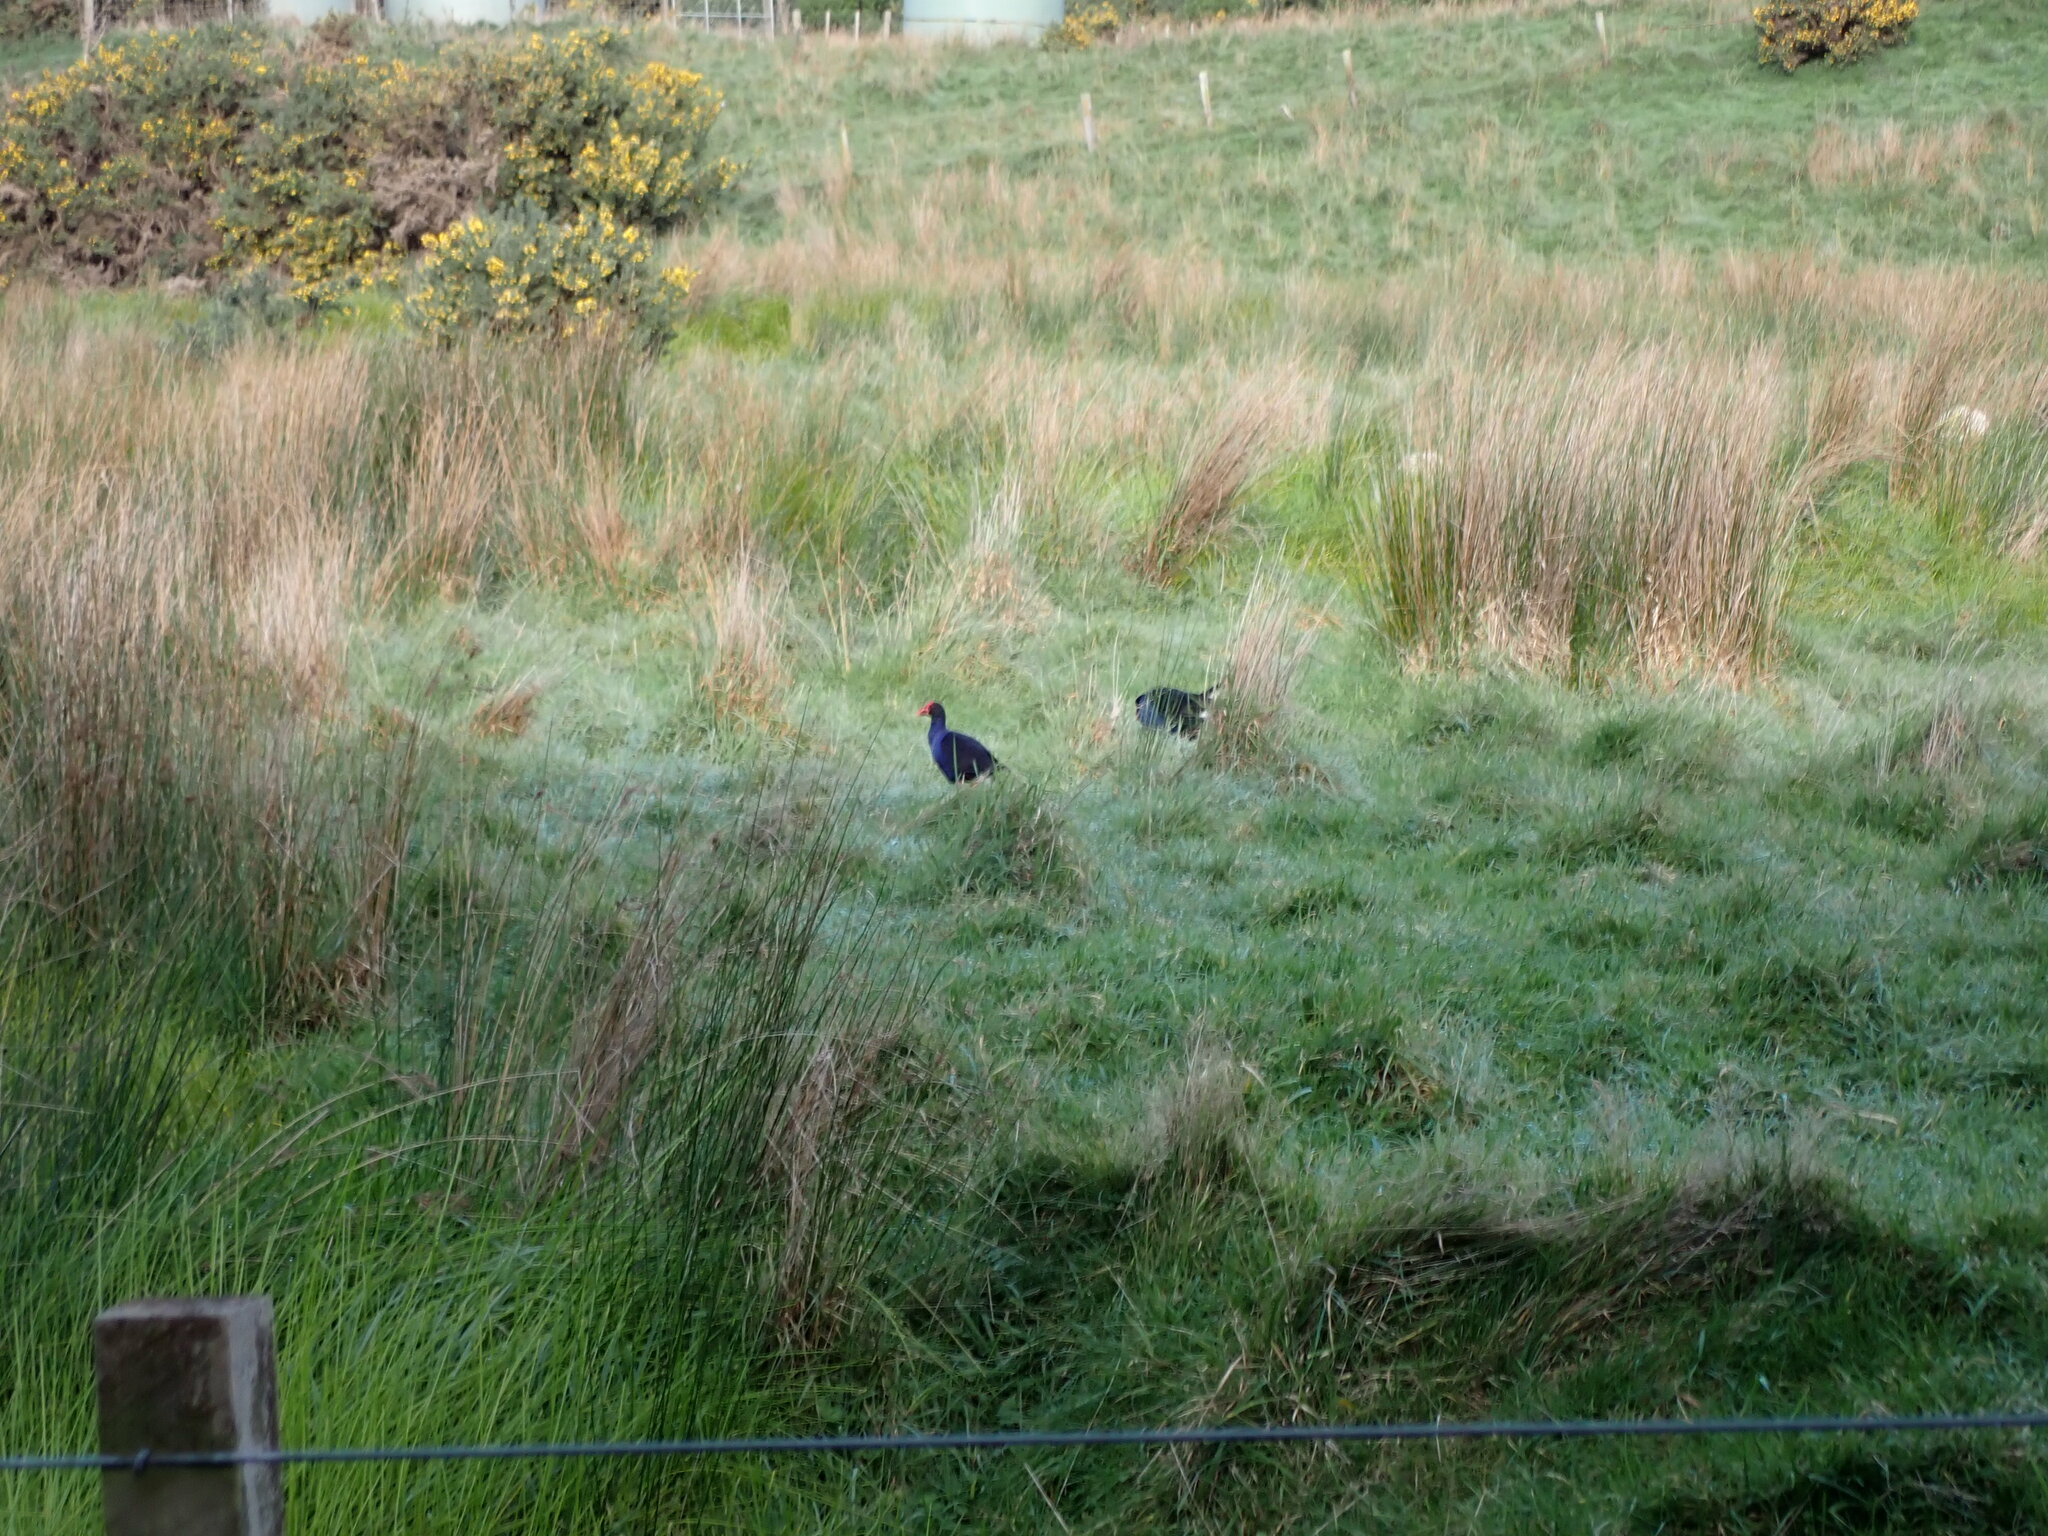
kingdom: Animalia
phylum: Chordata
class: Aves
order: Gruiformes
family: Rallidae
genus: Porphyrio
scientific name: Porphyrio melanotus
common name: Australasian swamphen
